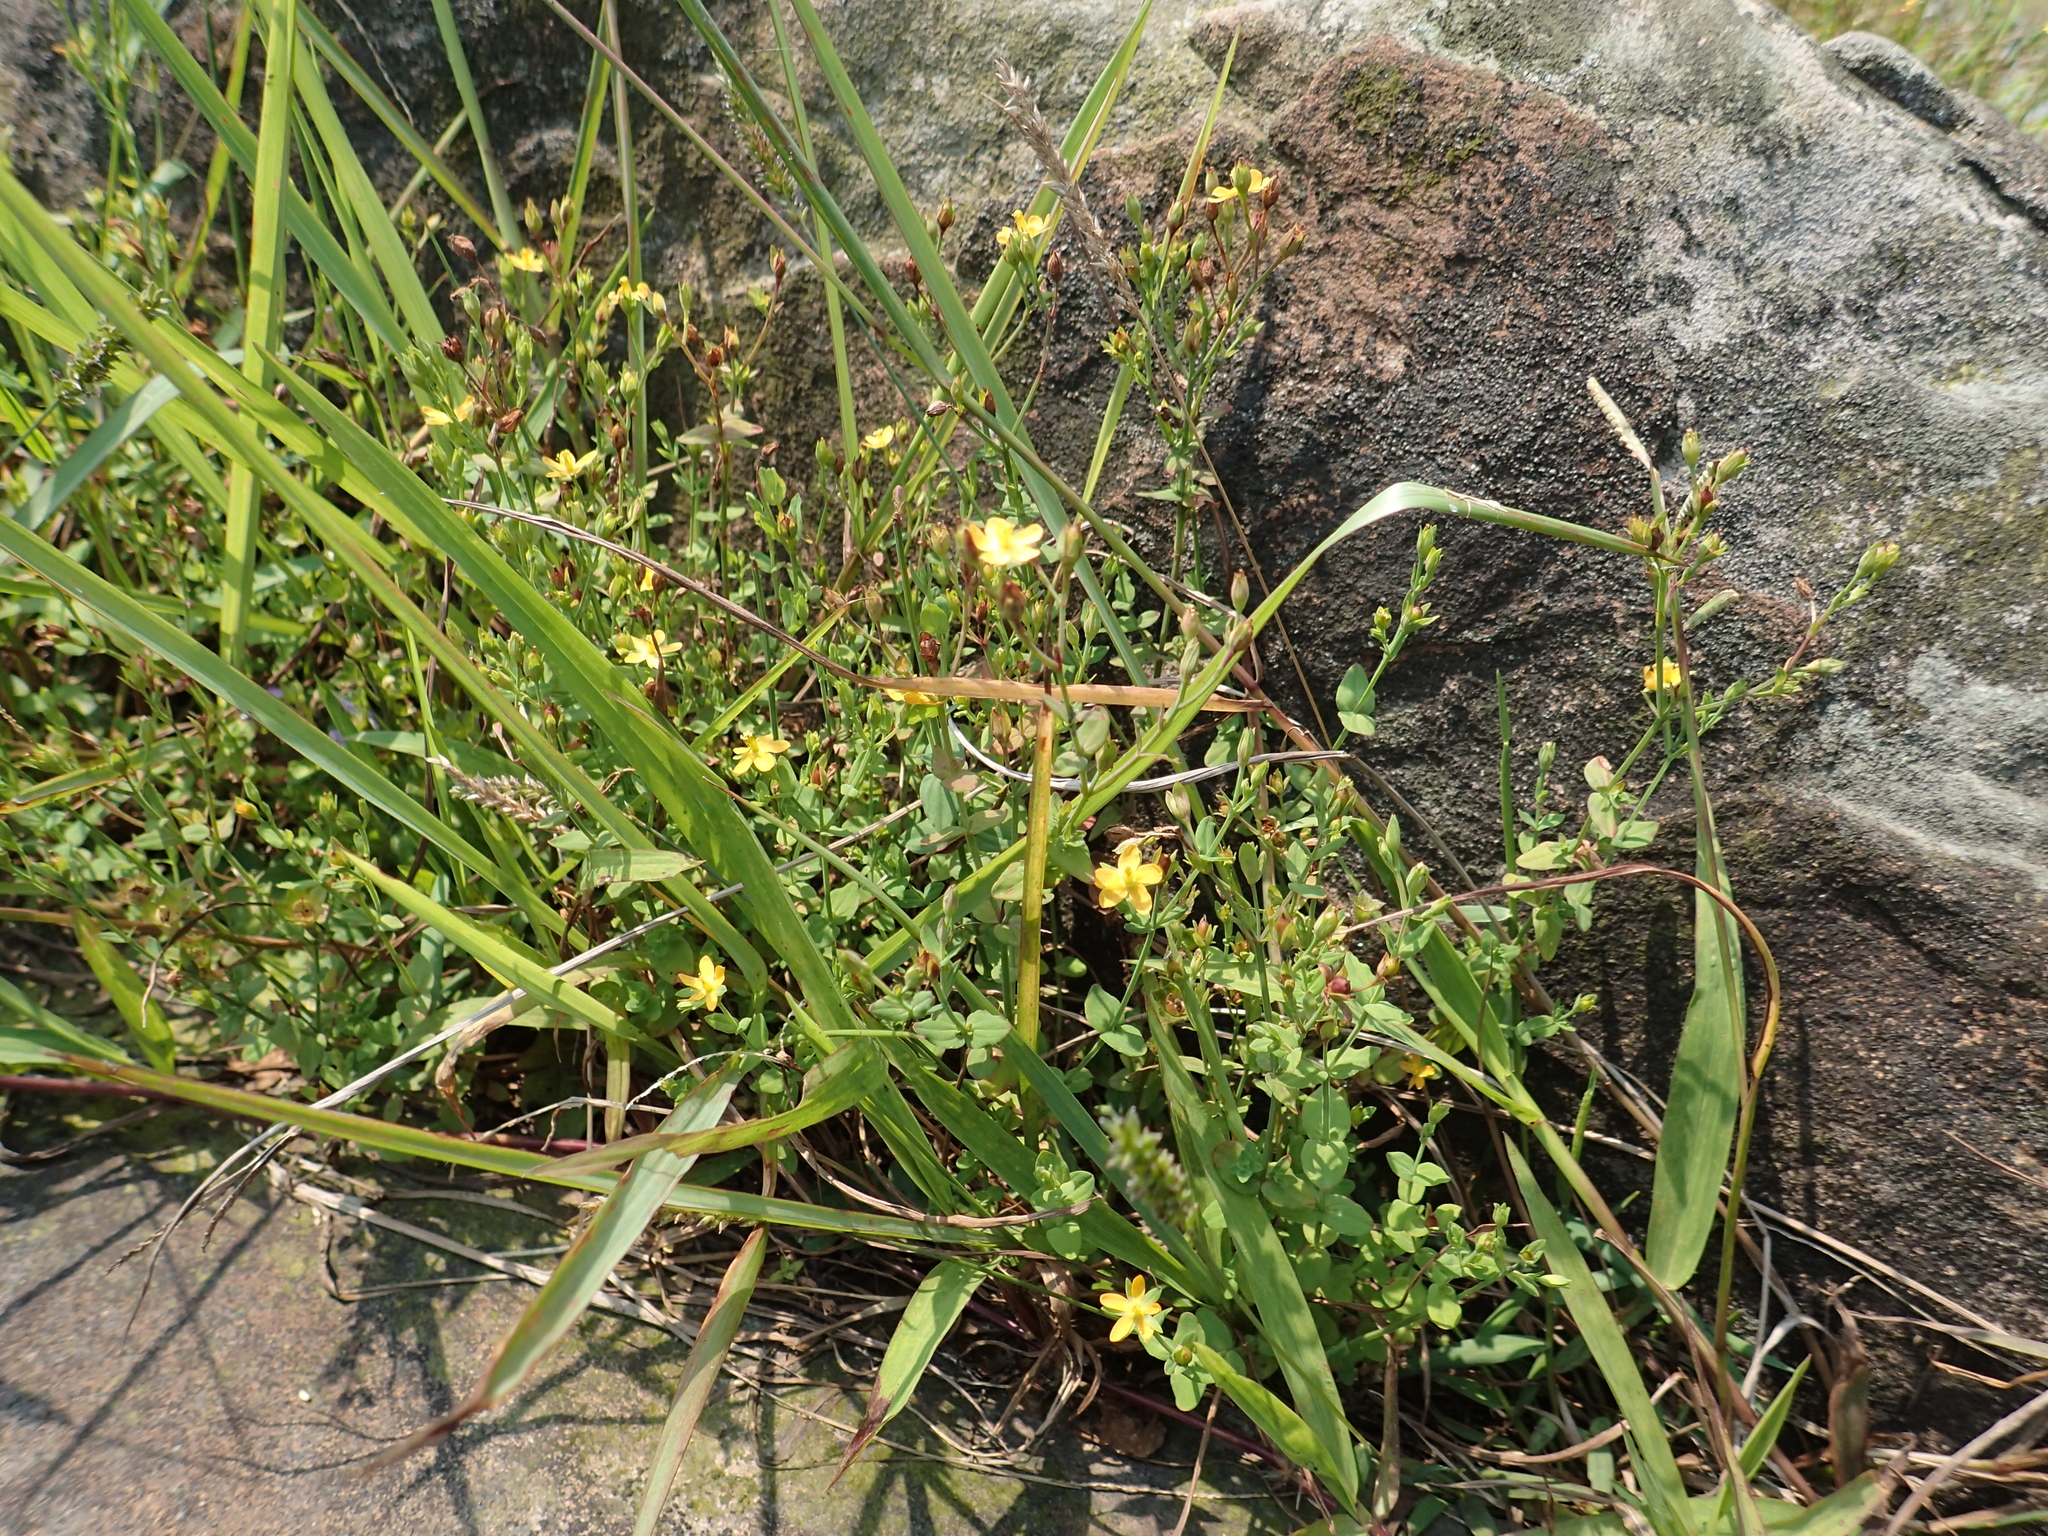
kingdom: Plantae
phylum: Tracheophyta
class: Magnoliopsida
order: Malpighiales
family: Hypericaceae
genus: Hypericum
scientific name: Hypericum japonicum
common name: Matted st. john's-wort
